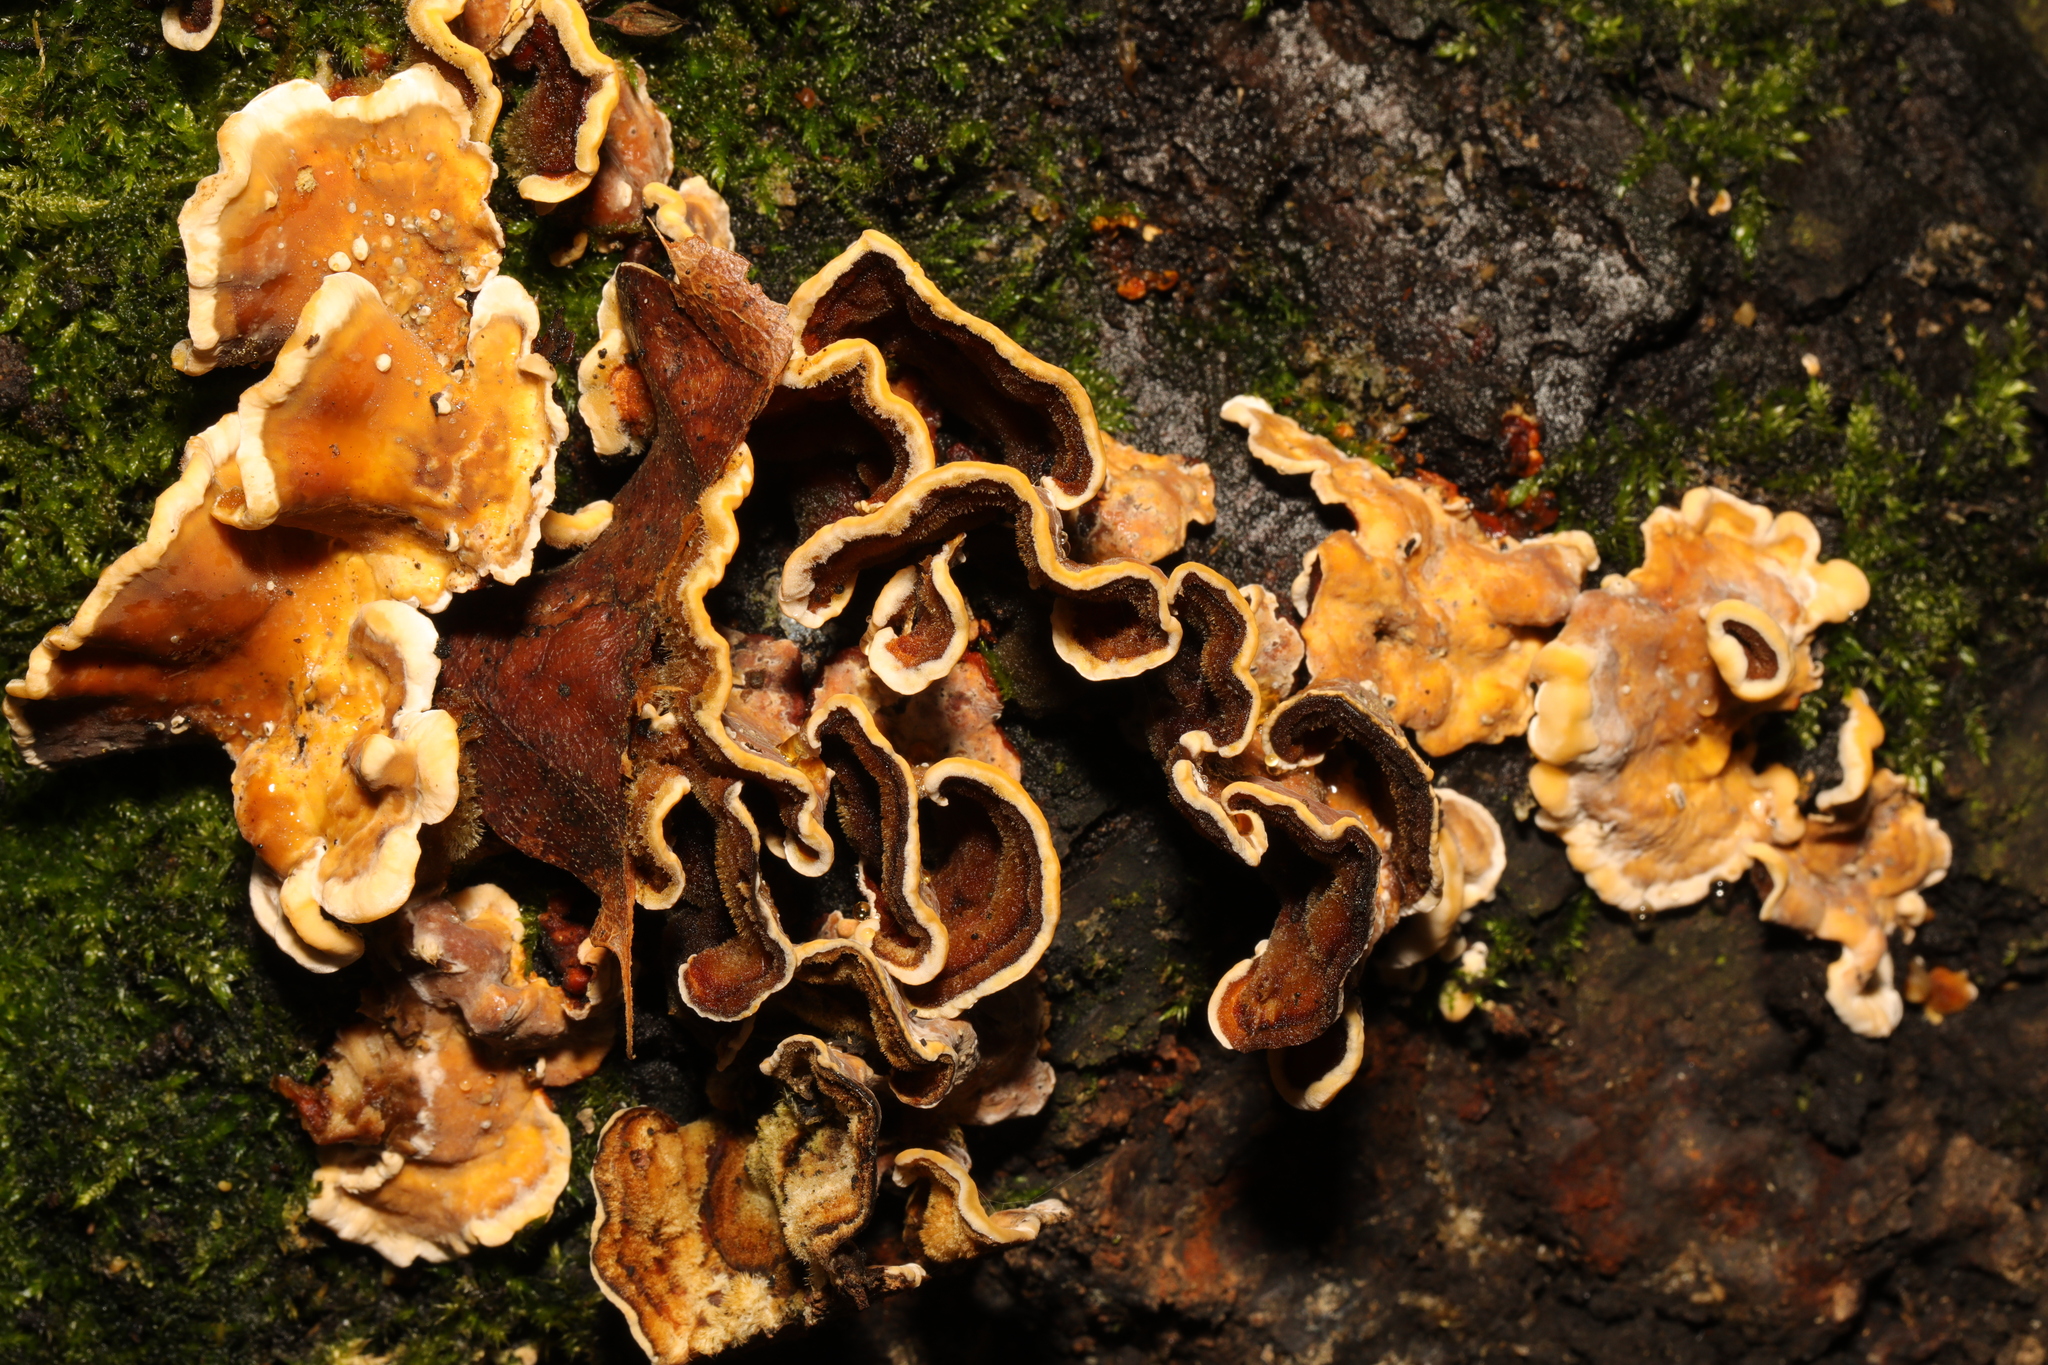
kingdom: Fungi
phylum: Basidiomycota
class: Agaricomycetes
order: Russulales
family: Stereaceae
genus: Stereum
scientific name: Stereum hirsutum
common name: Hairy curtain crust
